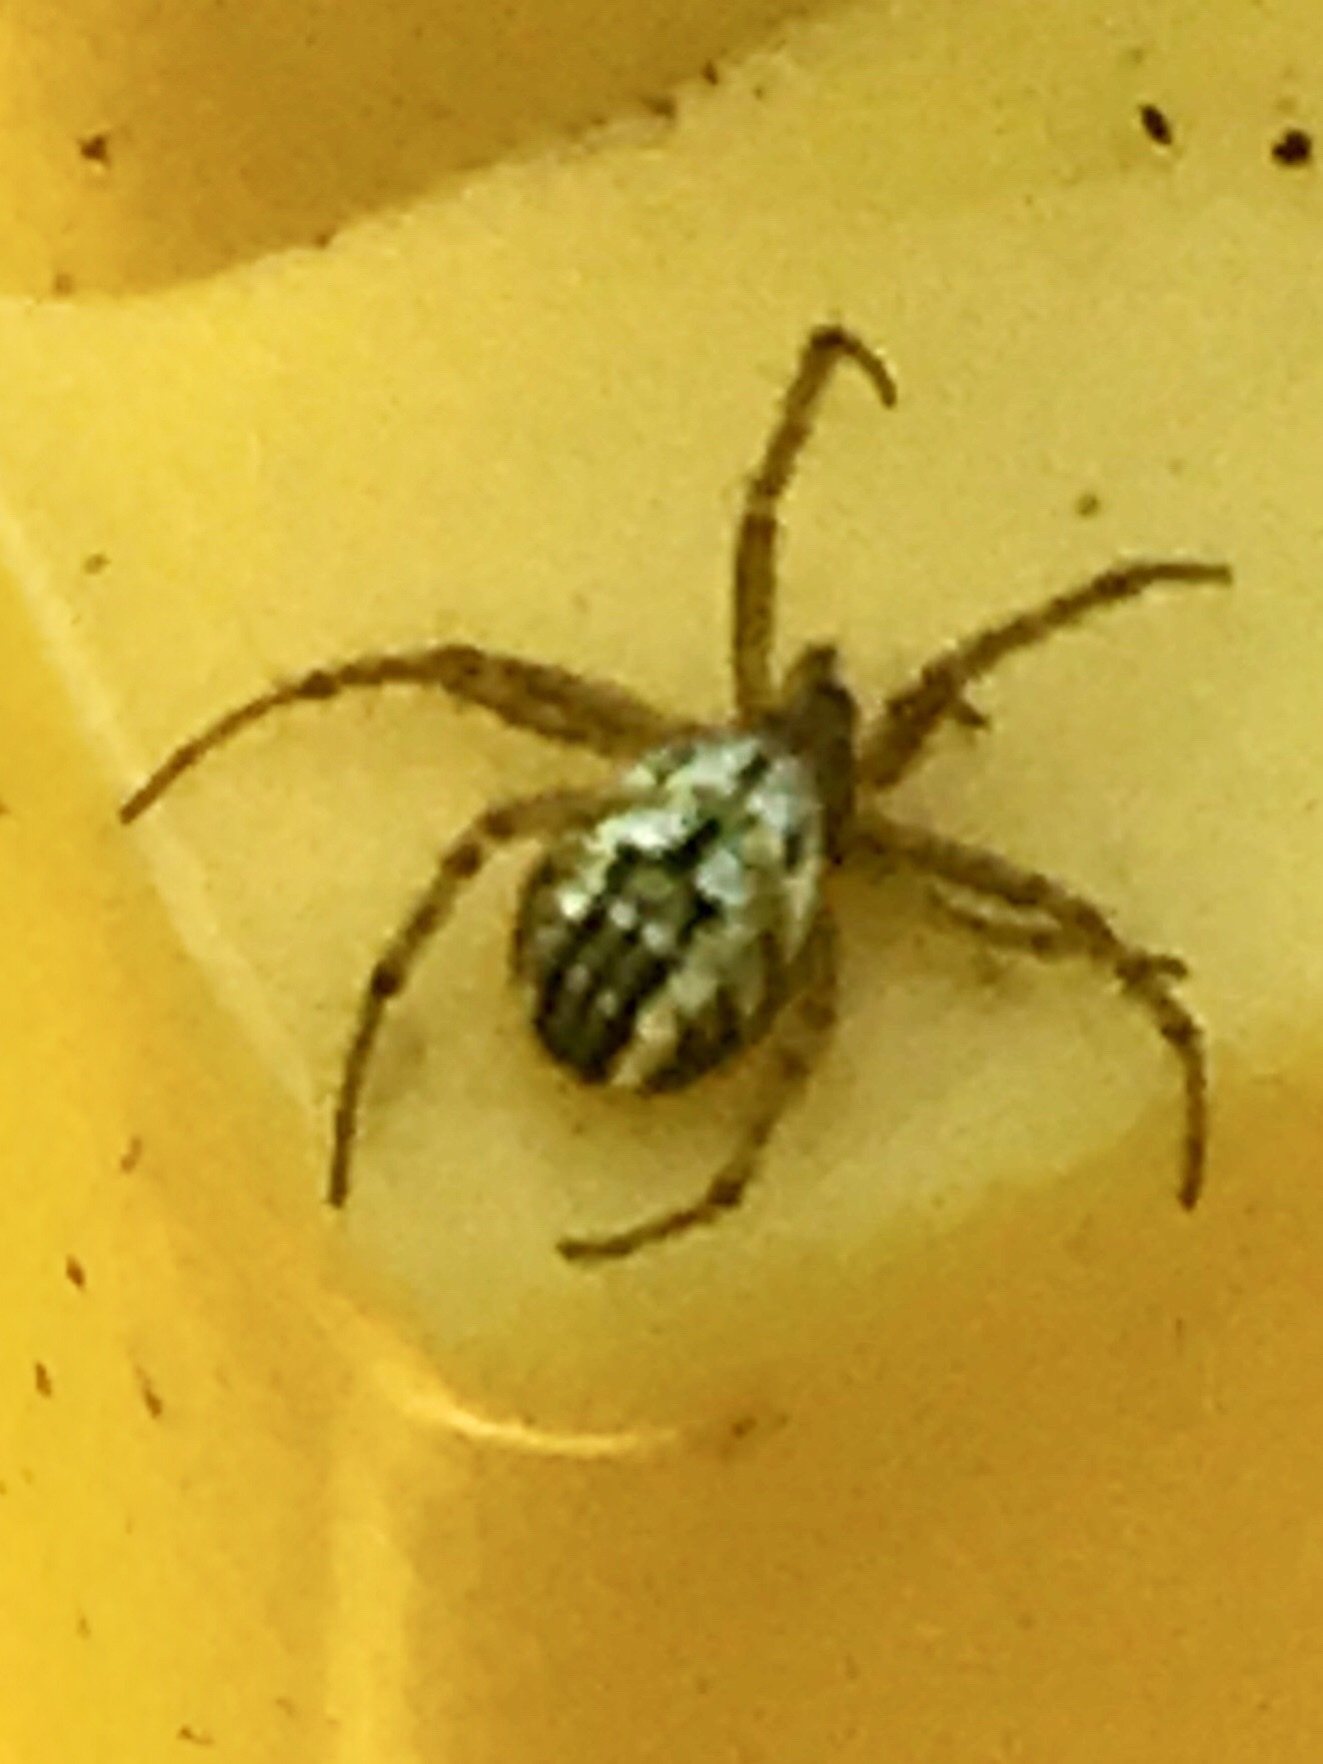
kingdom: Animalia
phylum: Arthropoda
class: Arachnida
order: Araneae
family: Araneidae
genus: Mangora
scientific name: Mangora acalypha
